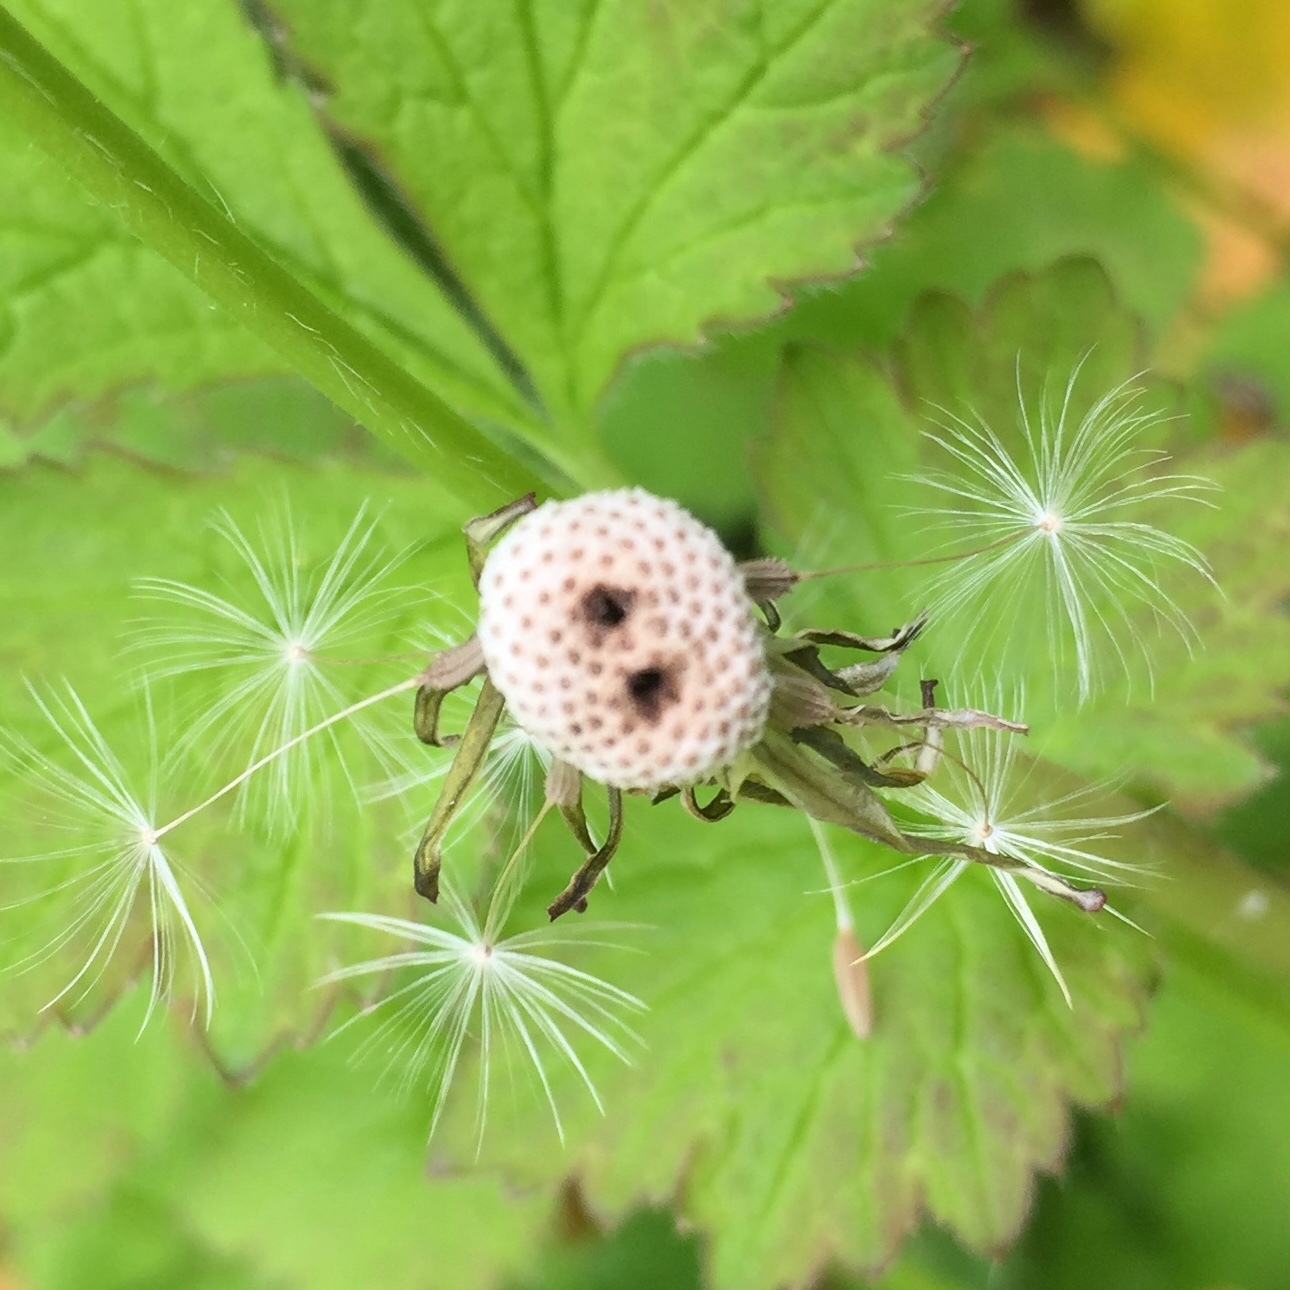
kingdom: Animalia
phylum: Arthropoda
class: Insecta
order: Coleoptera
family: Curculionidae
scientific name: Curculionidae
